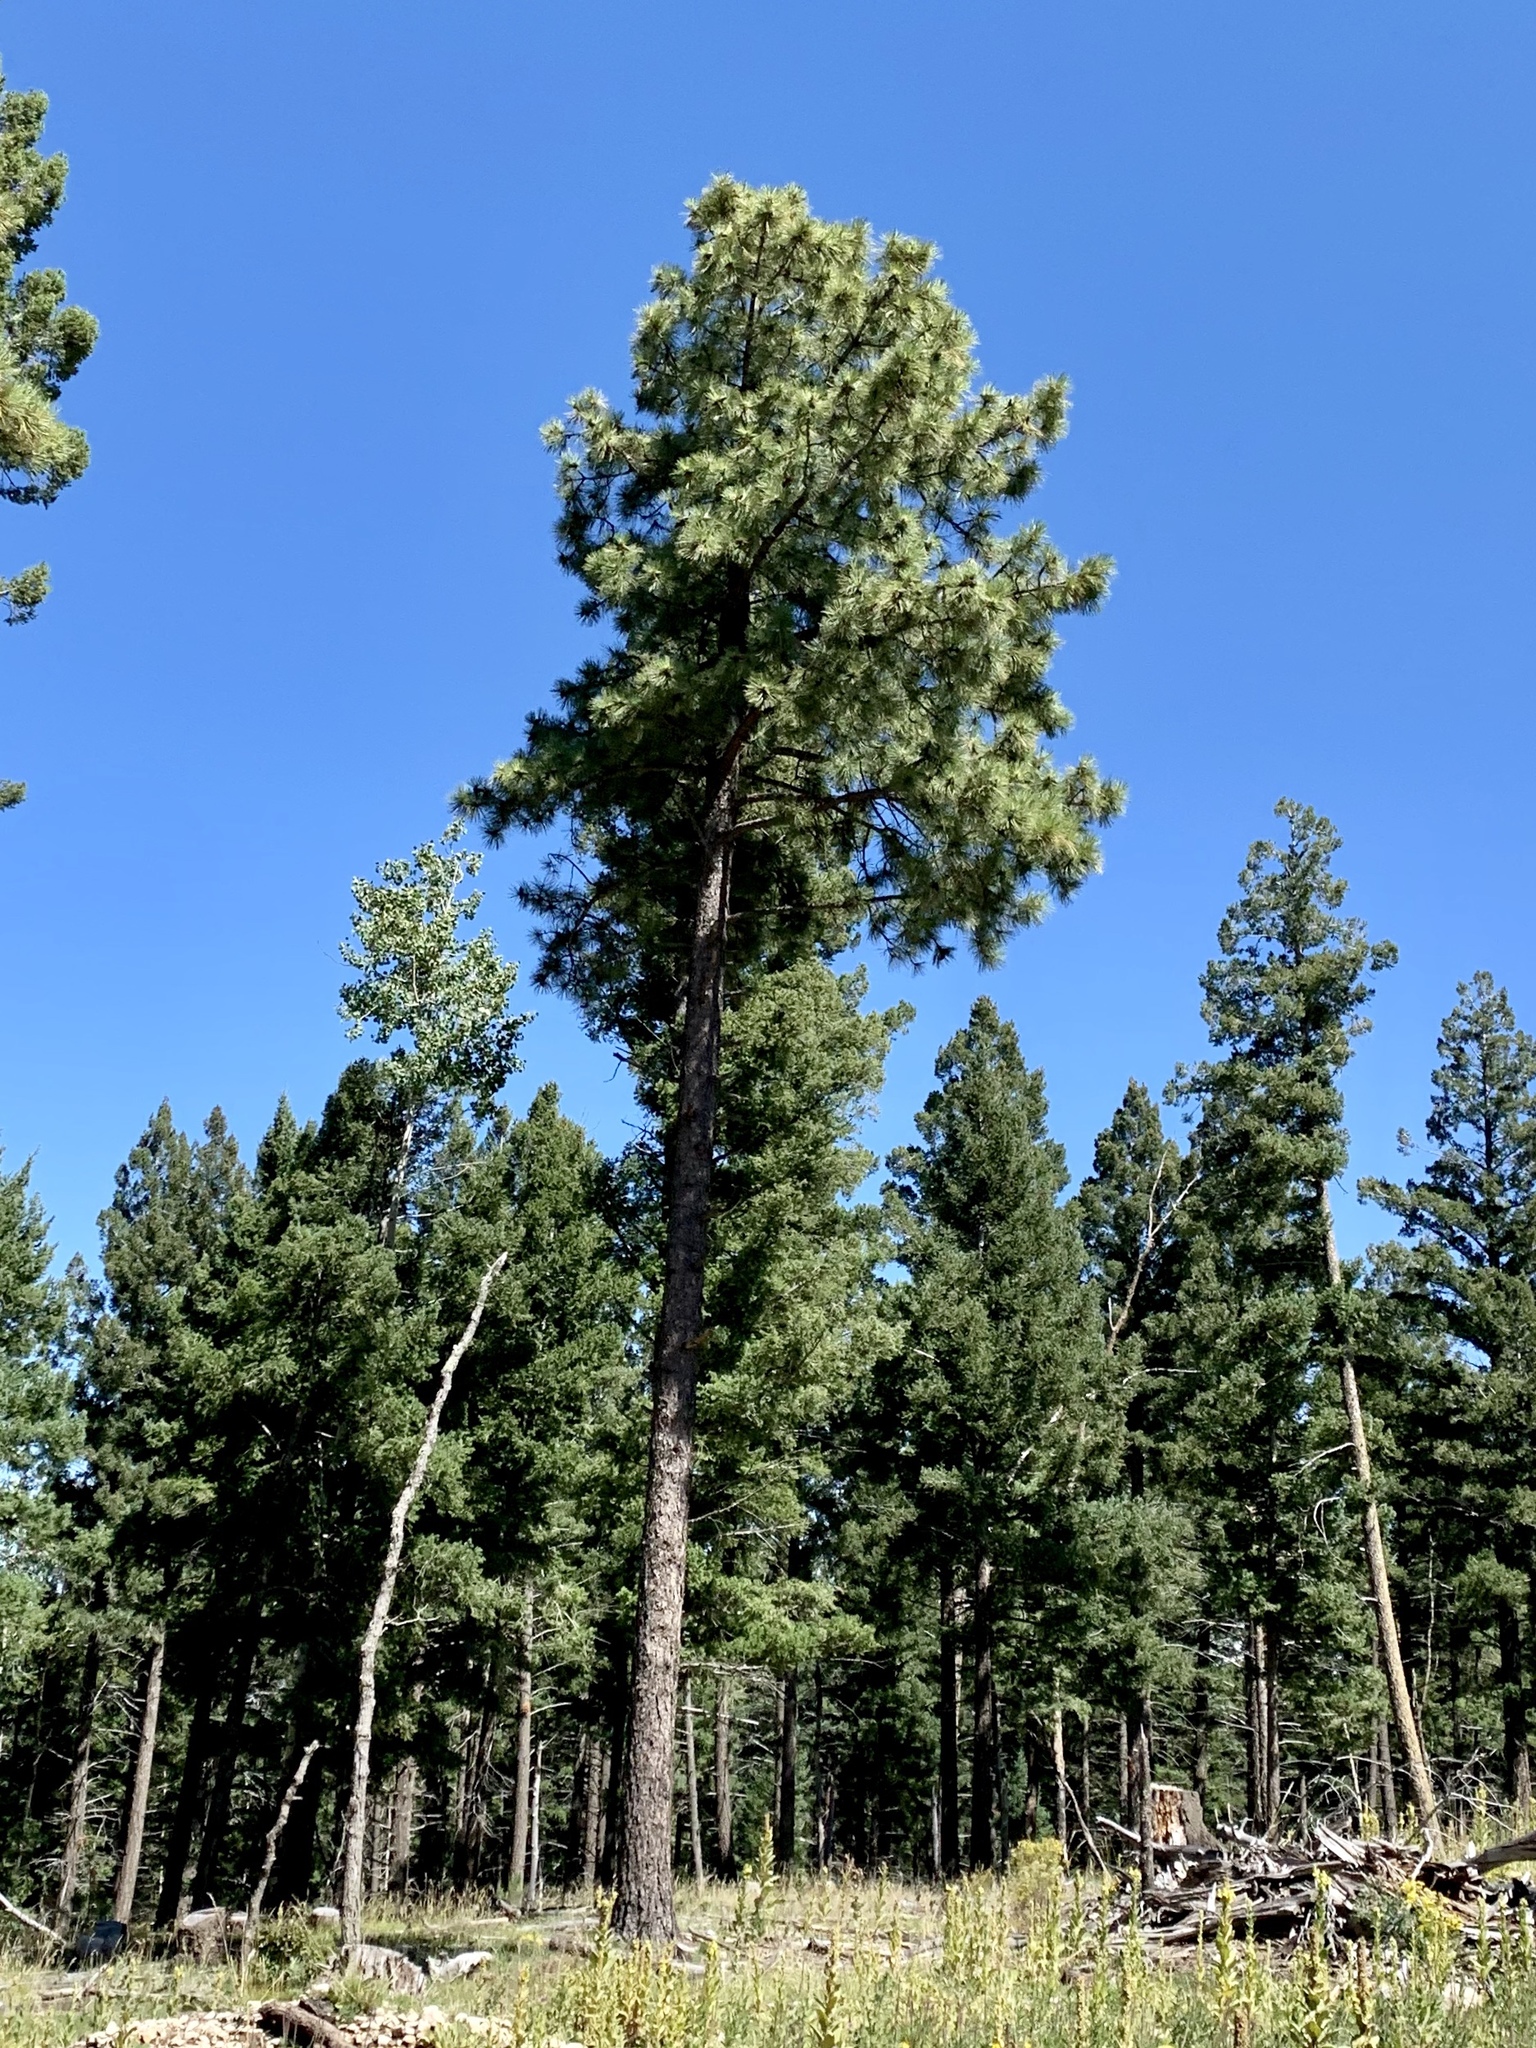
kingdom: Plantae
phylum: Tracheophyta
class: Pinopsida
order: Pinales
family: Pinaceae
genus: Pinus
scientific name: Pinus ponderosa
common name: Western yellow-pine
